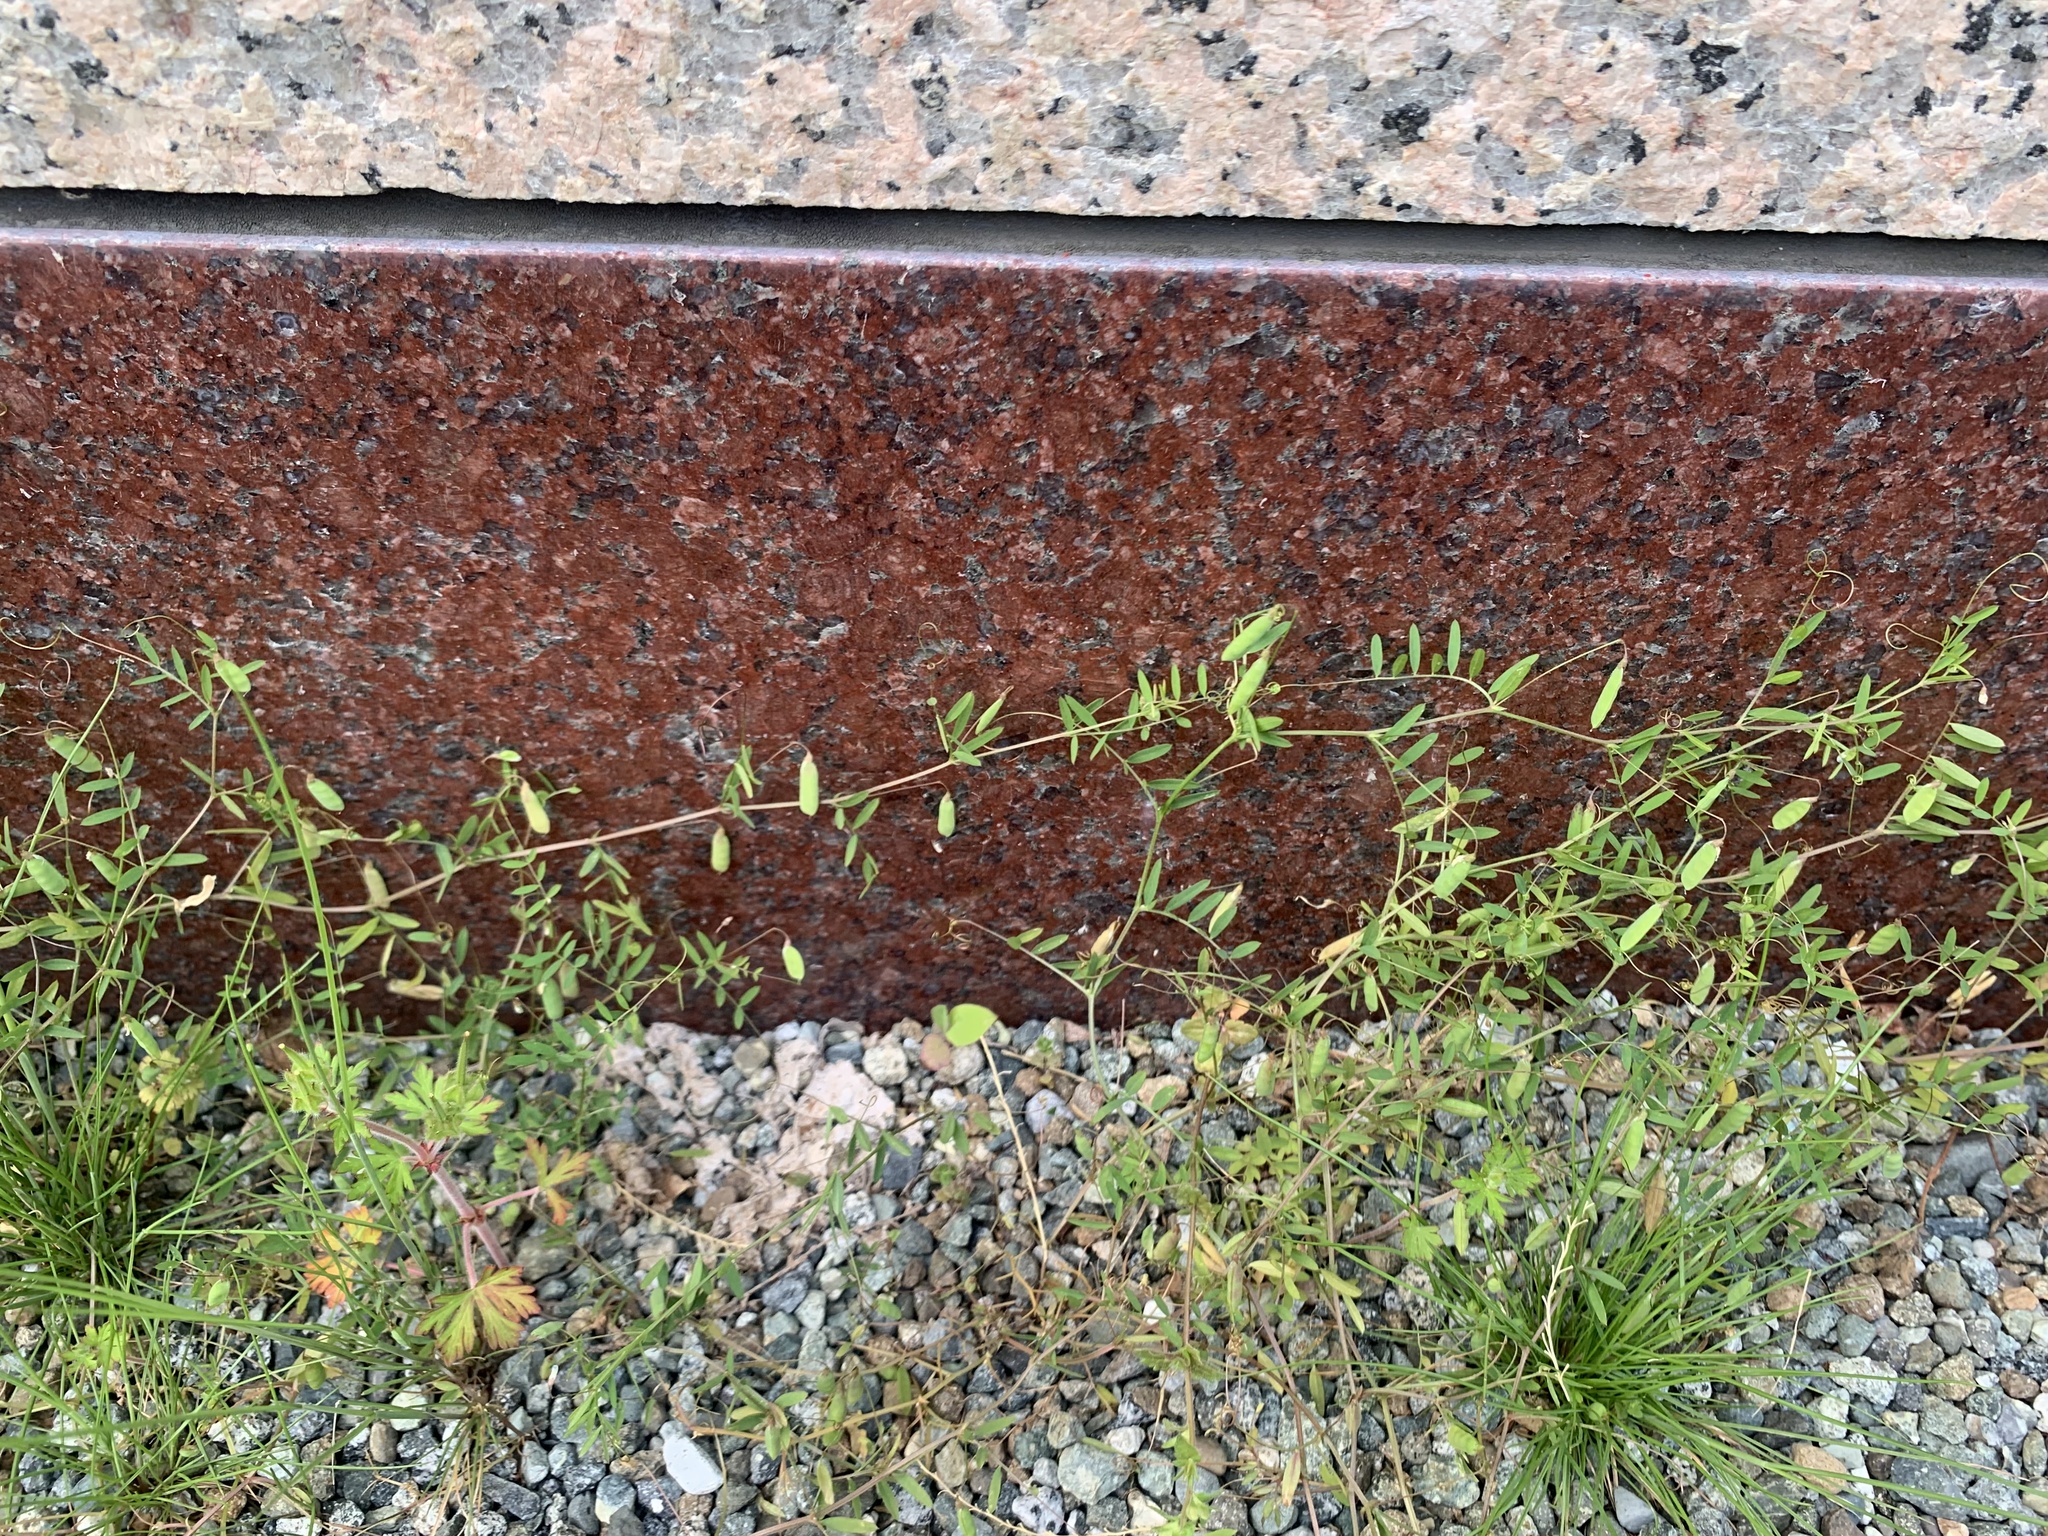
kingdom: Plantae
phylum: Tracheophyta
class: Magnoliopsida
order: Fabales
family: Fabaceae
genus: Vicia
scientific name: Vicia tetrasperma
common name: Smooth tare
